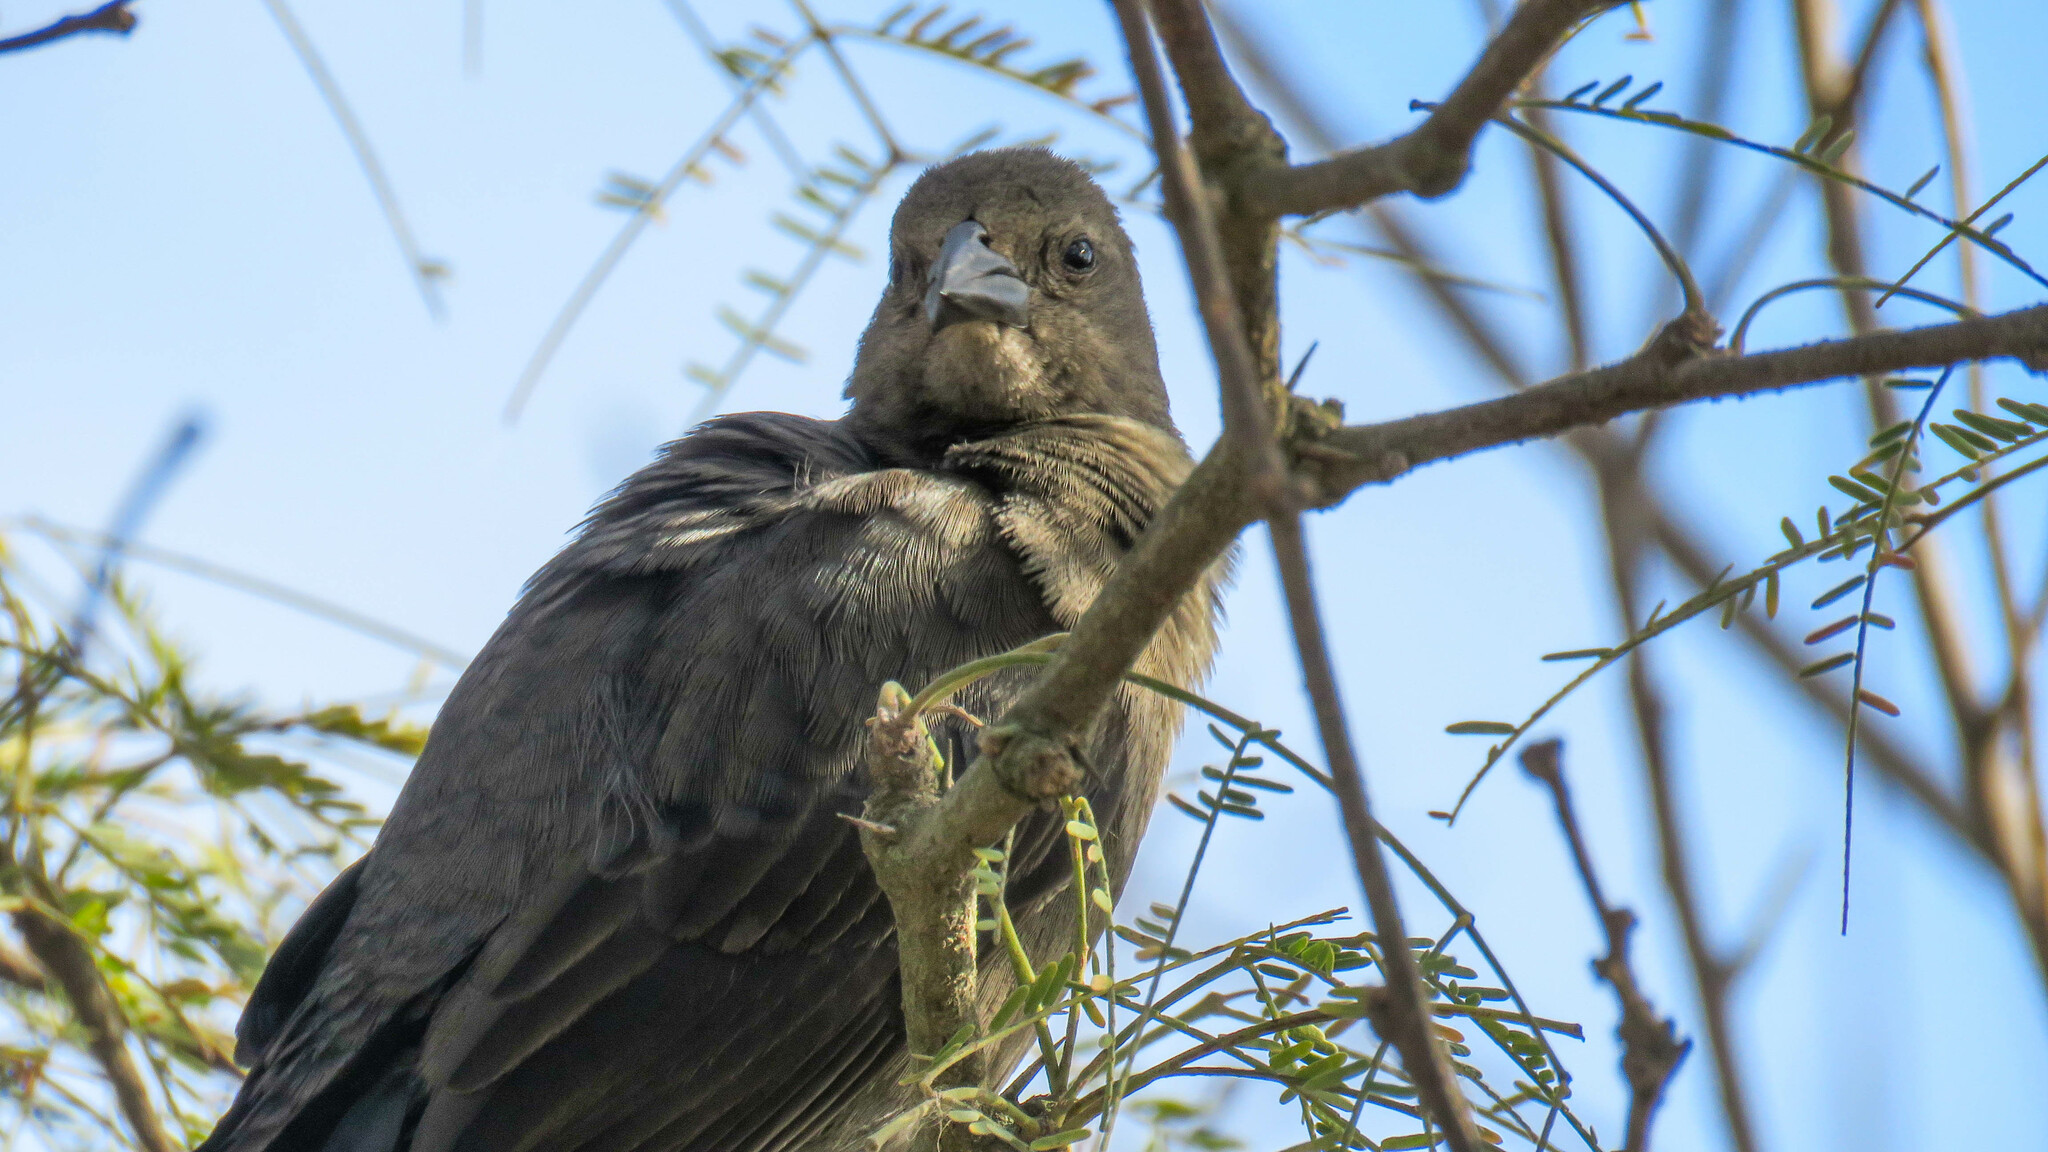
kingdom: Animalia
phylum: Chordata
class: Aves
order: Passeriformes
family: Icteridae
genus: Molothrus
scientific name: Molothrus bonariensis
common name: Shiny cowbird
